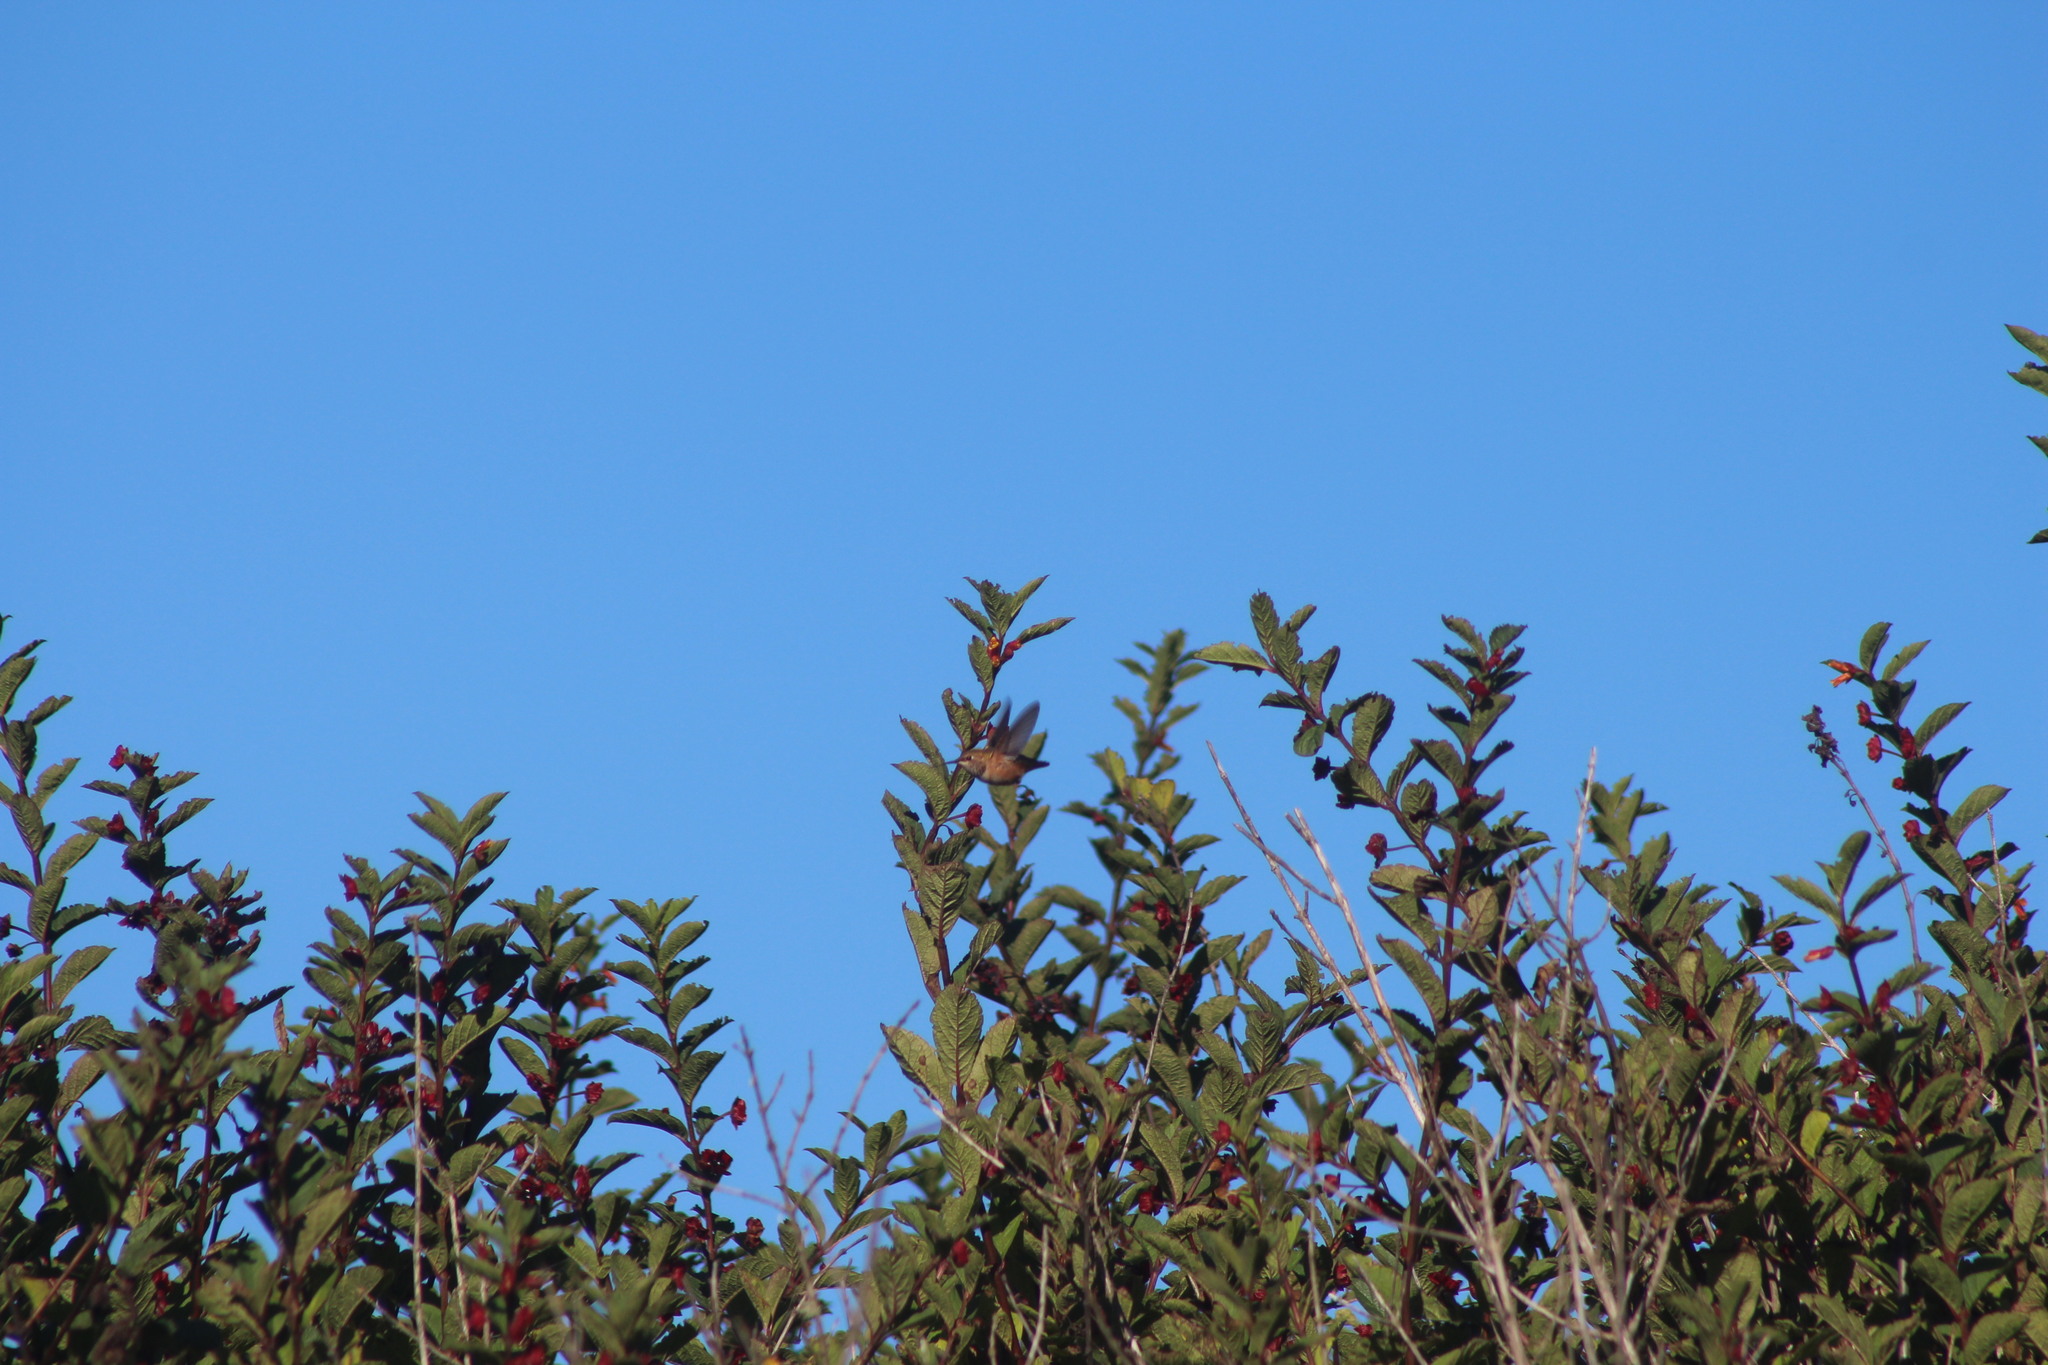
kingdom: Animalia
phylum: Chordata
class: Aves
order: Apodiformes
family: Trochilidae
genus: Selasphorus
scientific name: Selasphorus sasin
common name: Allen's hummingbird
